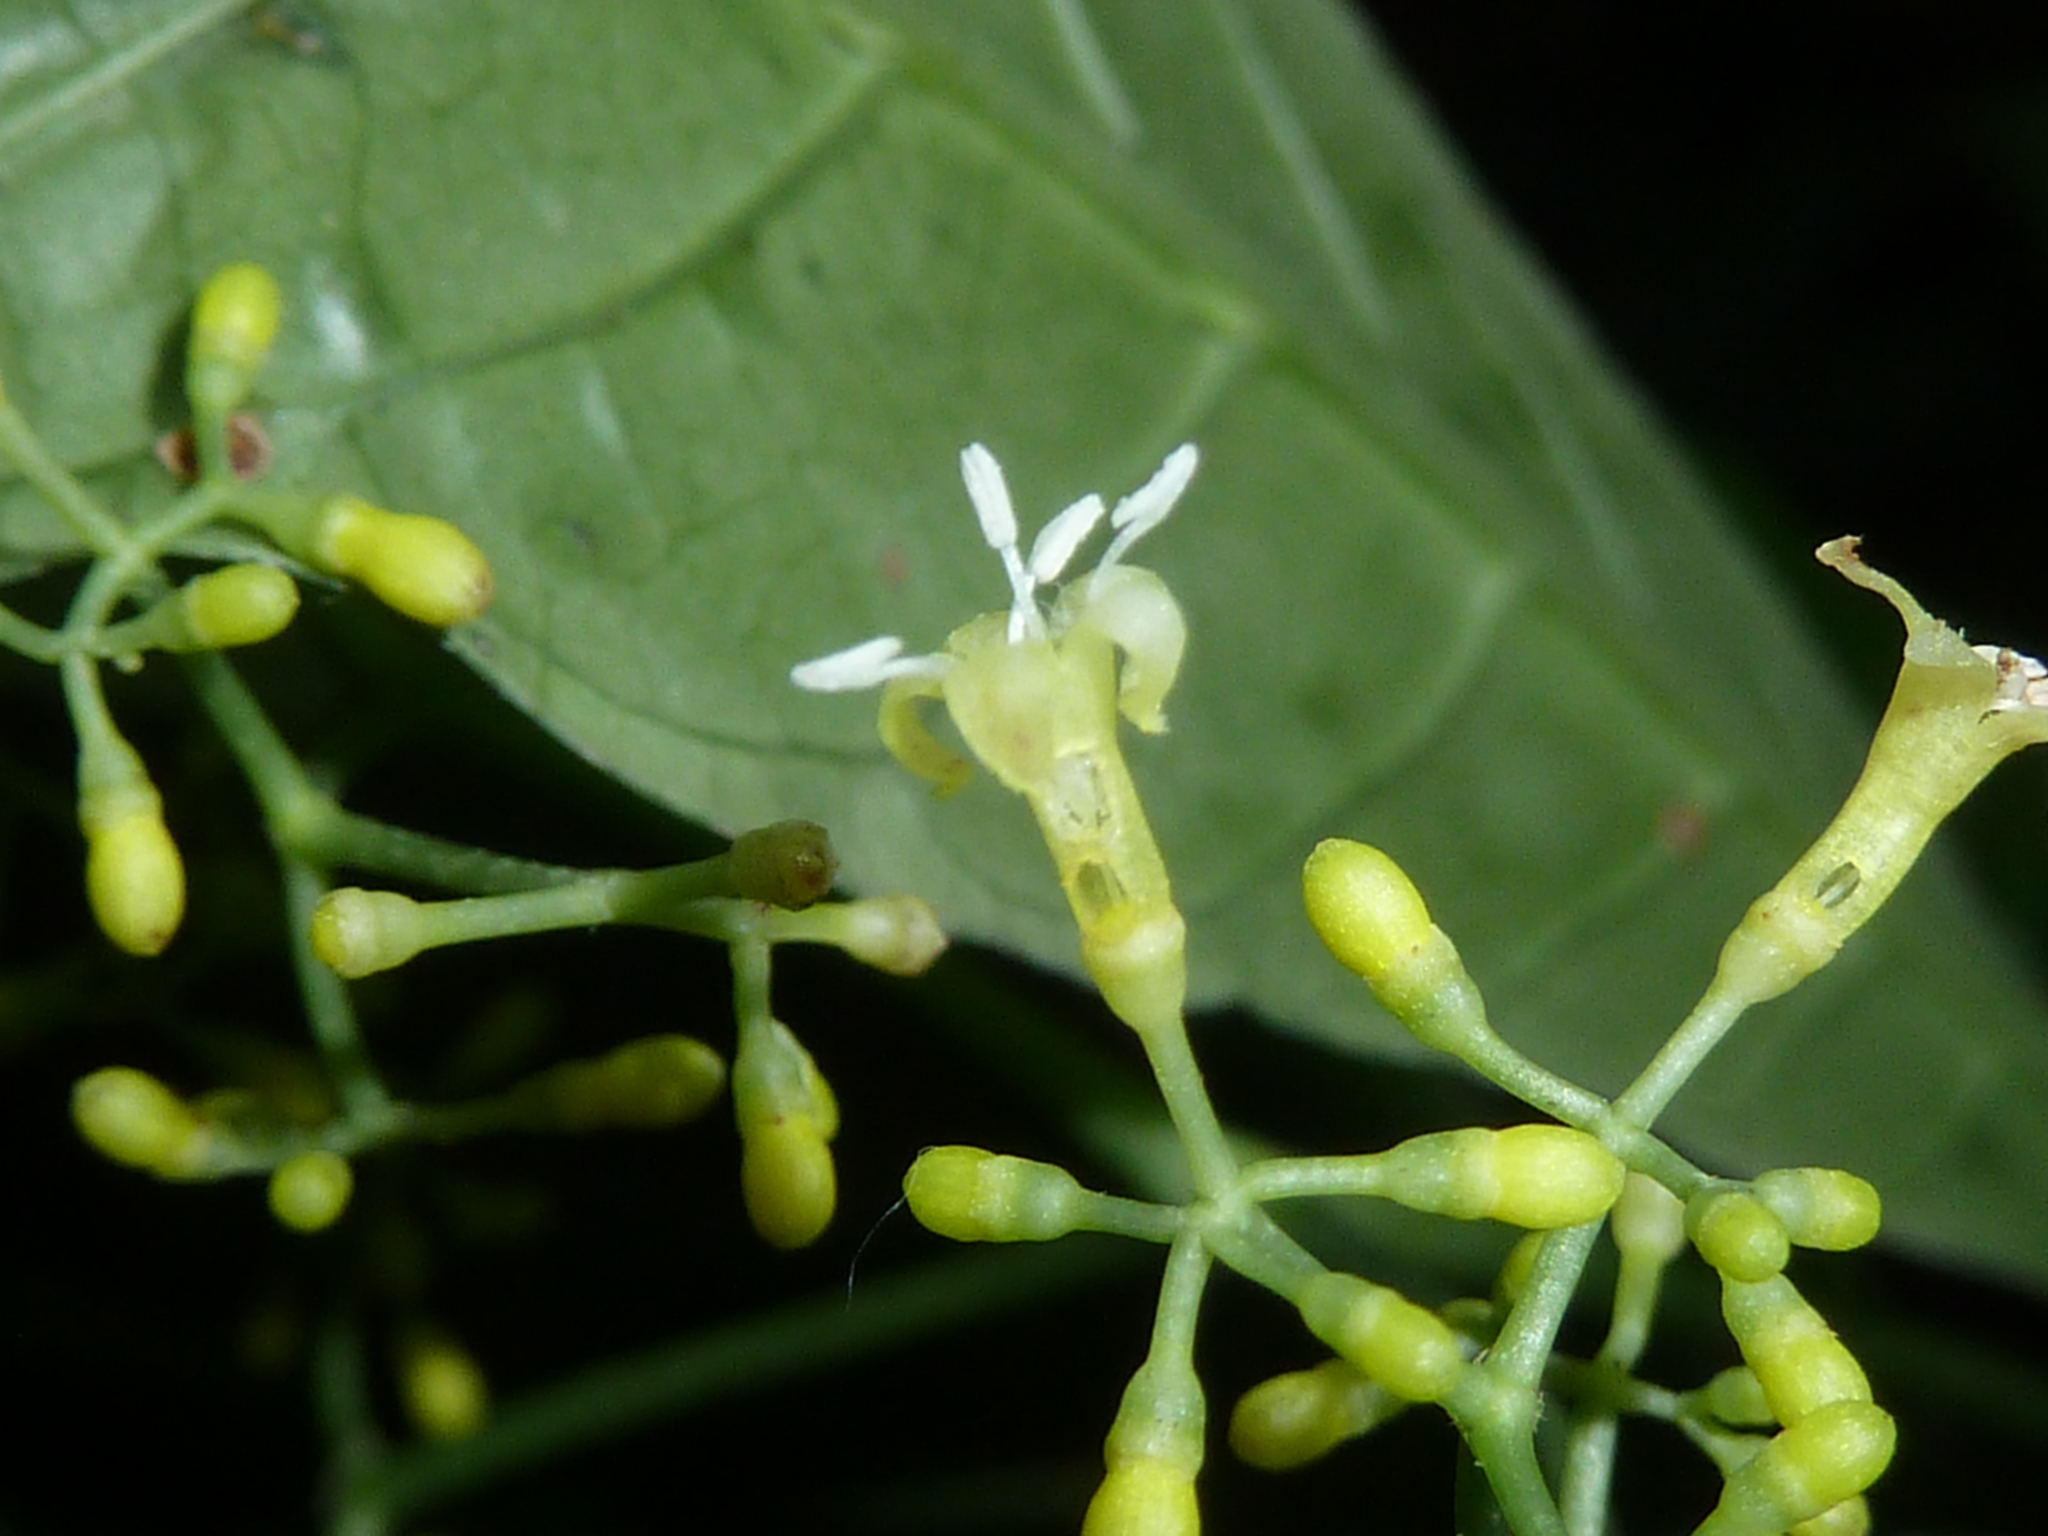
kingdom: Plantae
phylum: Tracheophyta
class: Magnoliopsida
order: Gentianales
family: Rubiaceae
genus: Psychotria
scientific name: Psychotria marginata
